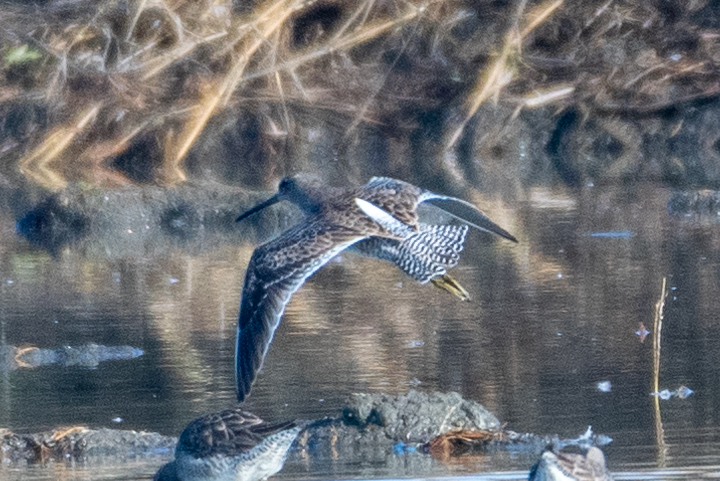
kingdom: Animalia
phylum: Chordata
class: Aves
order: Charadriiformes
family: Scolopacidae
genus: Limnodromus
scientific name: Limnodromus
